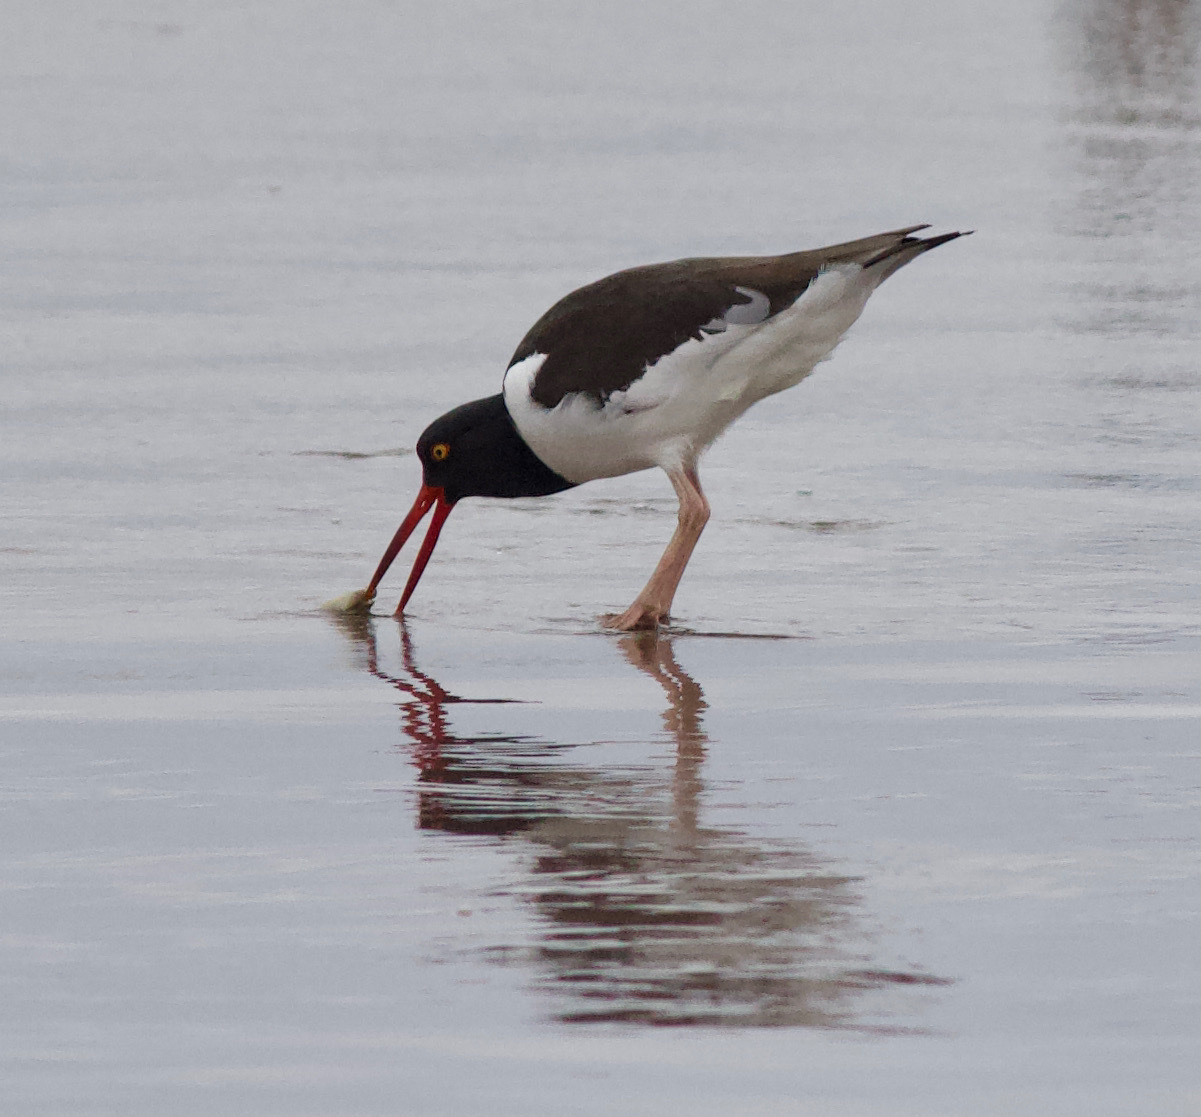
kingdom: Animalia
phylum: Chordata
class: Aves
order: Charadriiformes
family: Haematopodidae
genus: Haematopus
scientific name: Haematopus palliatus
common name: American oystercatcher
